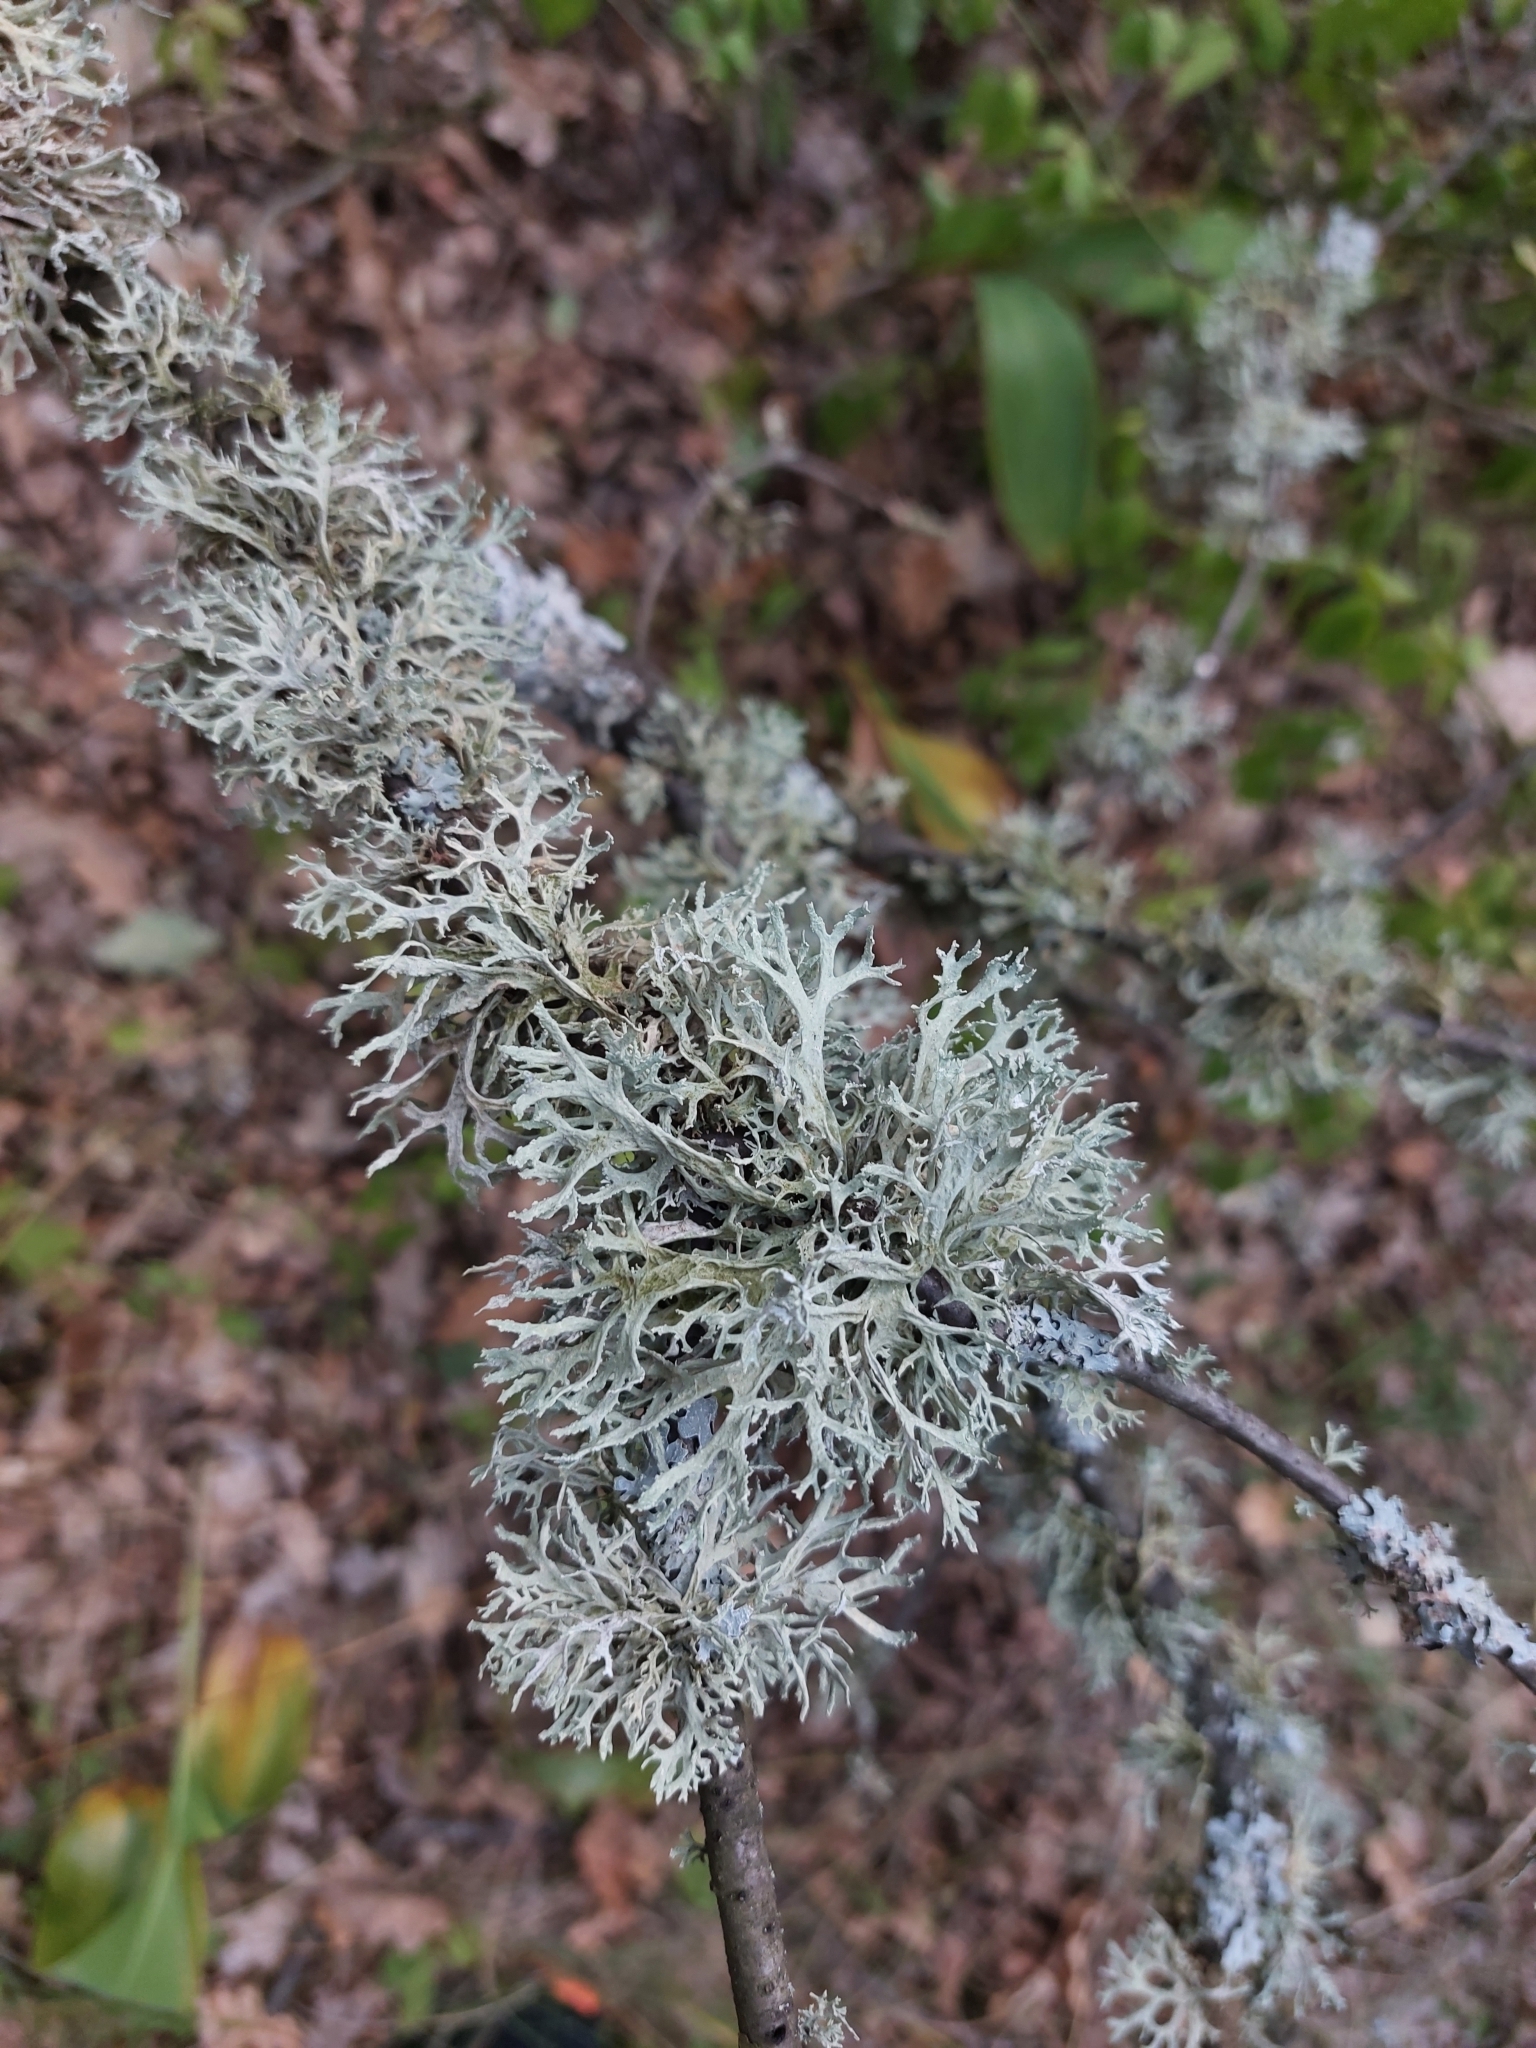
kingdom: Fungi
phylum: Ascomycota
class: Lecanoromycetes
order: Lecanorales
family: Parmeliaceae
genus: Evernia
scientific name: Evernia prunastri
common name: Oak moss
